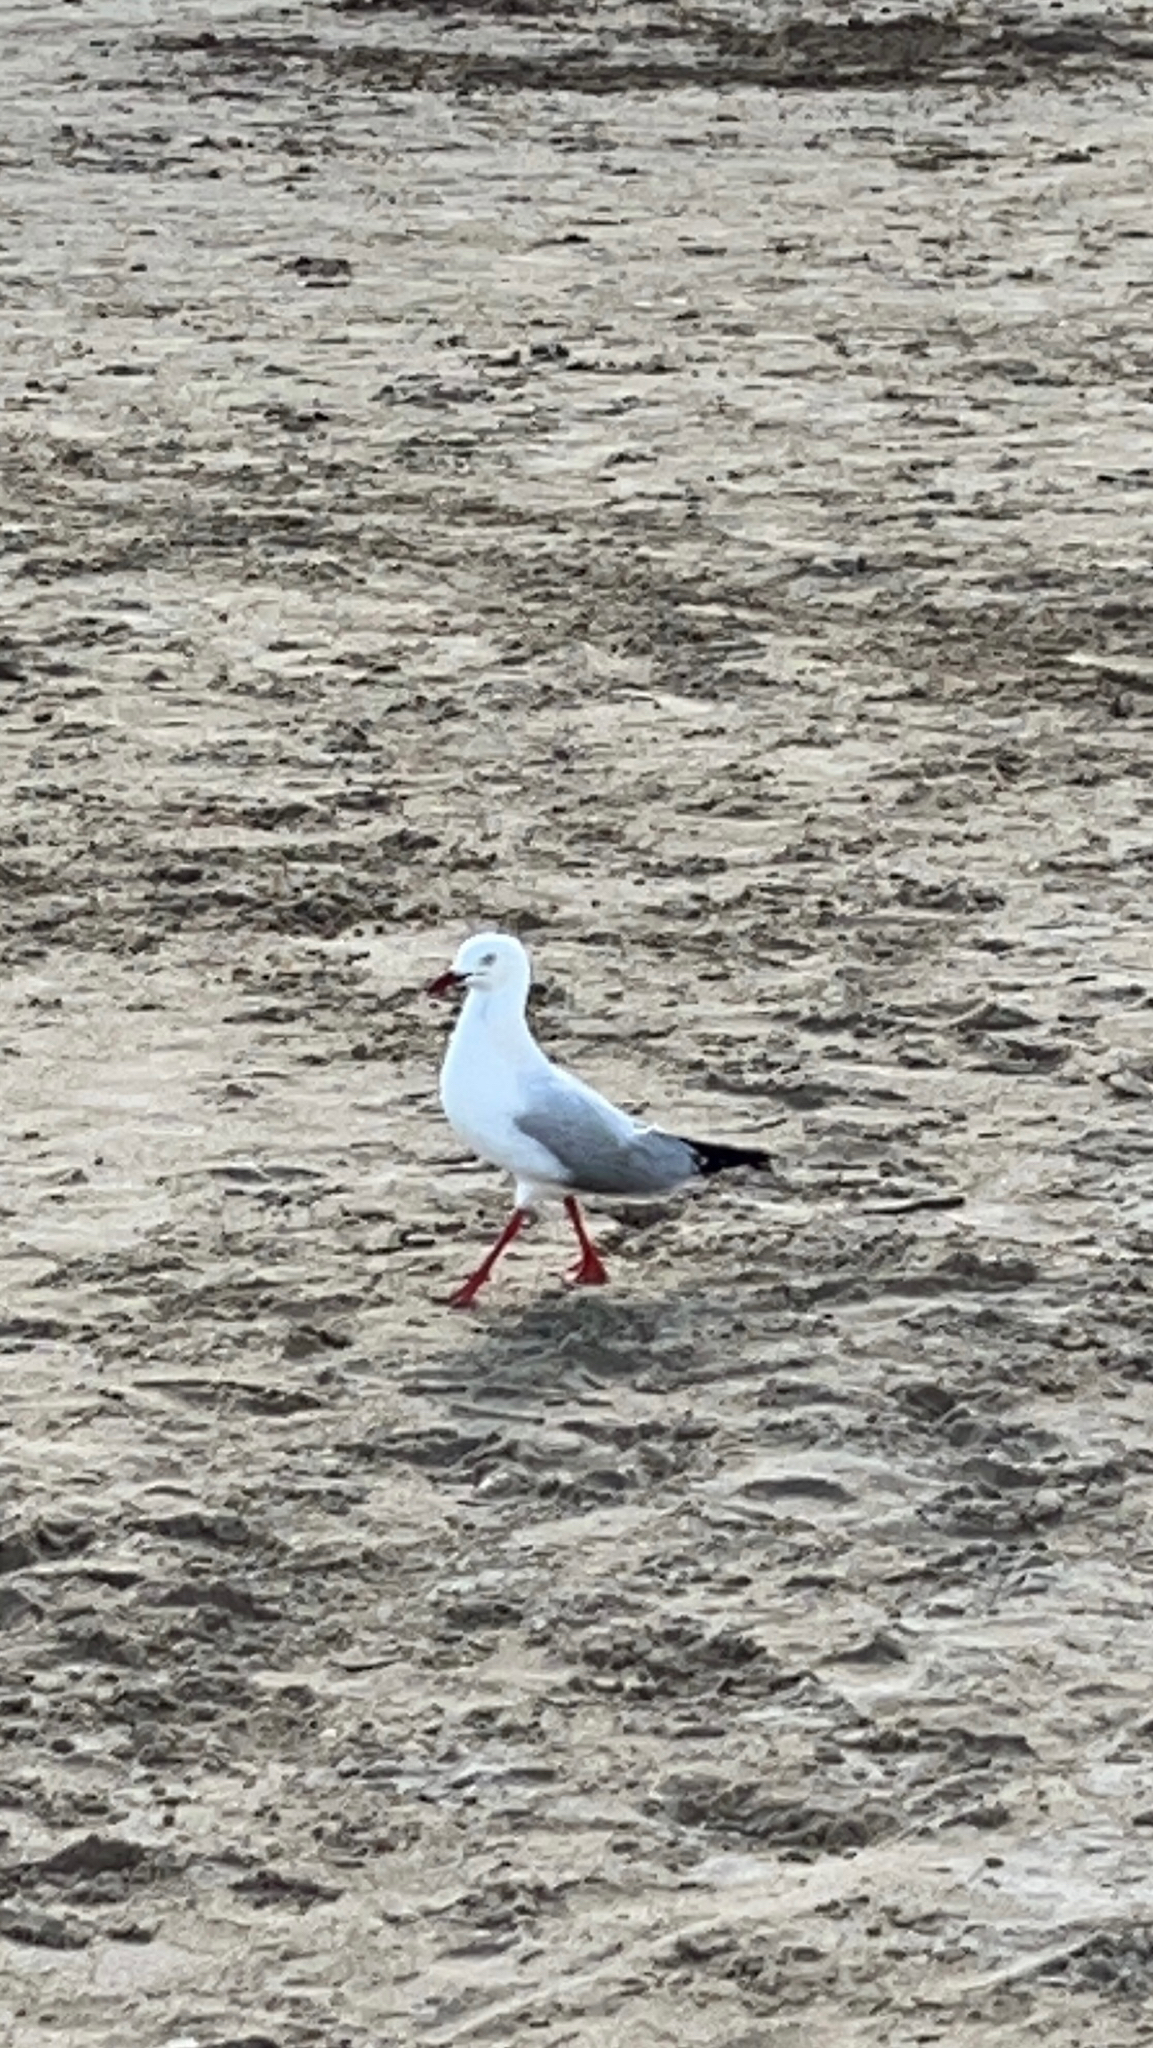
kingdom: Animalia
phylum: Chordata
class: Aves
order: Charadriiformes
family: Laridae
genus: Chroicocephalus
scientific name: Chroicocephalus novaehollandiae
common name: Silver gull
